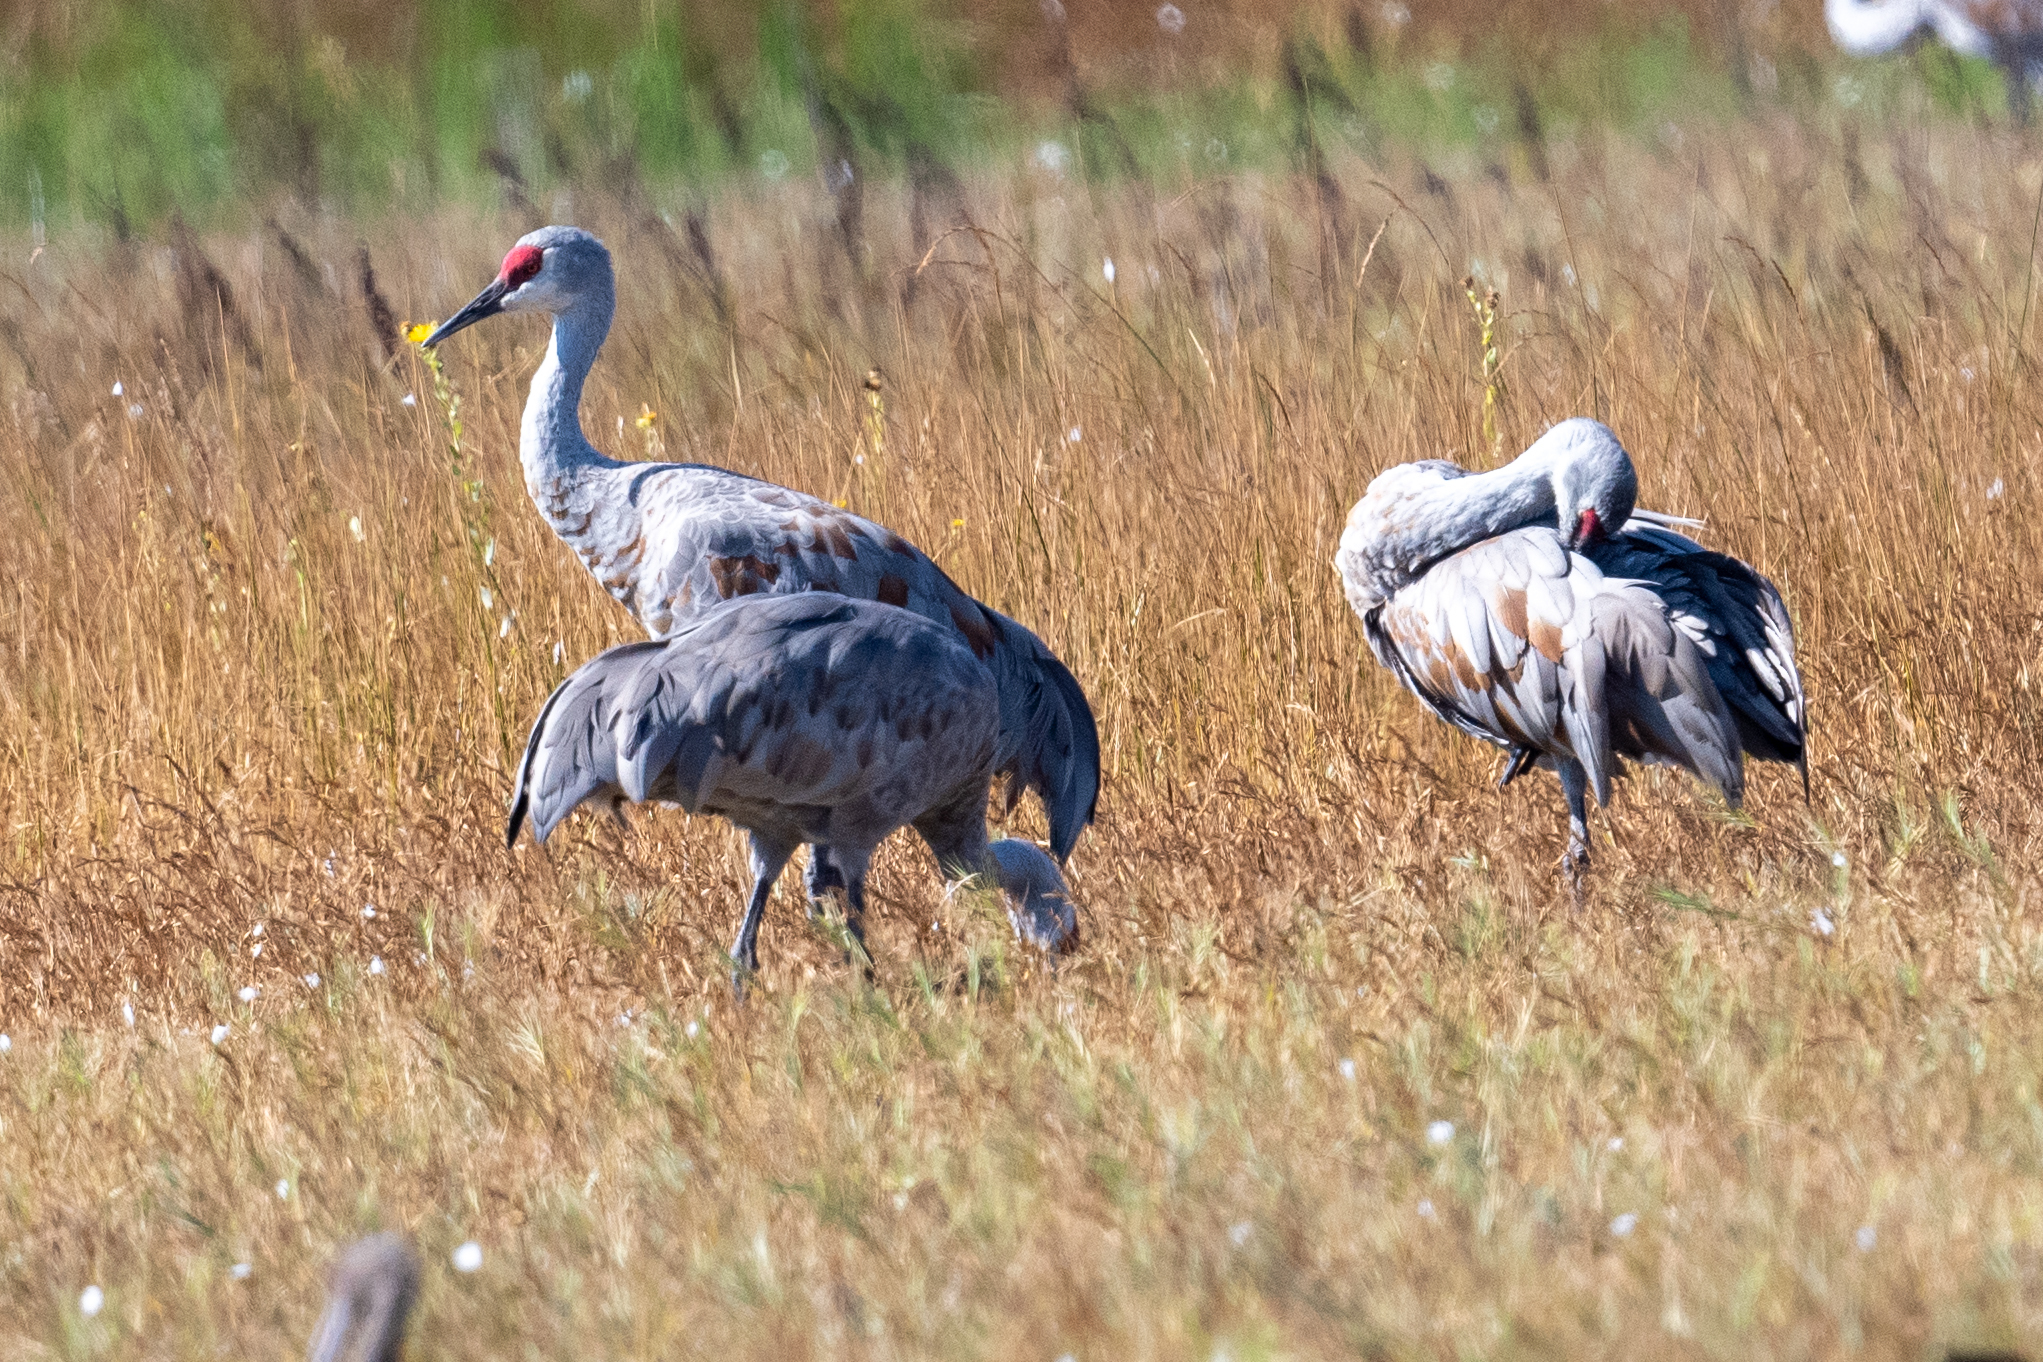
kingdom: Animalia
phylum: Chordata
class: Aves
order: Gruiformes
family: Gruidae
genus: Grus
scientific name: Grus canadensis
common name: Sandhill crane
